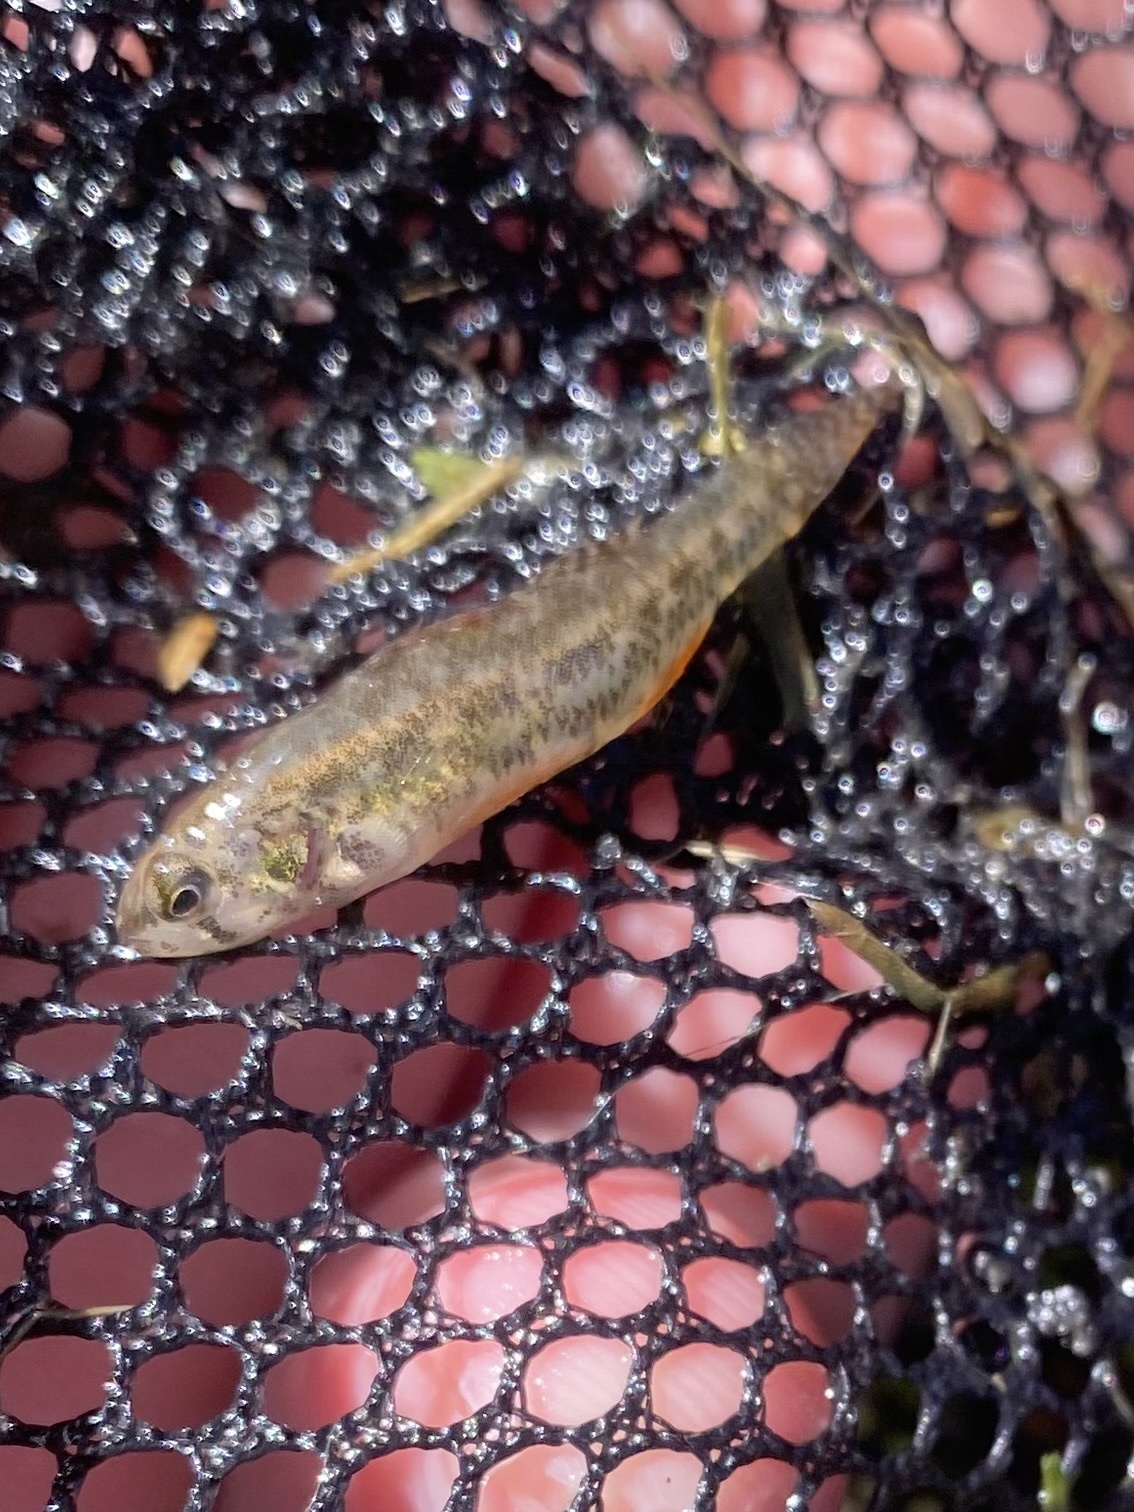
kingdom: Animalia
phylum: Chordata
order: Perciformes
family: Percidae
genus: Etheostoma
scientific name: Etheostoma microperca
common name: Least darter
